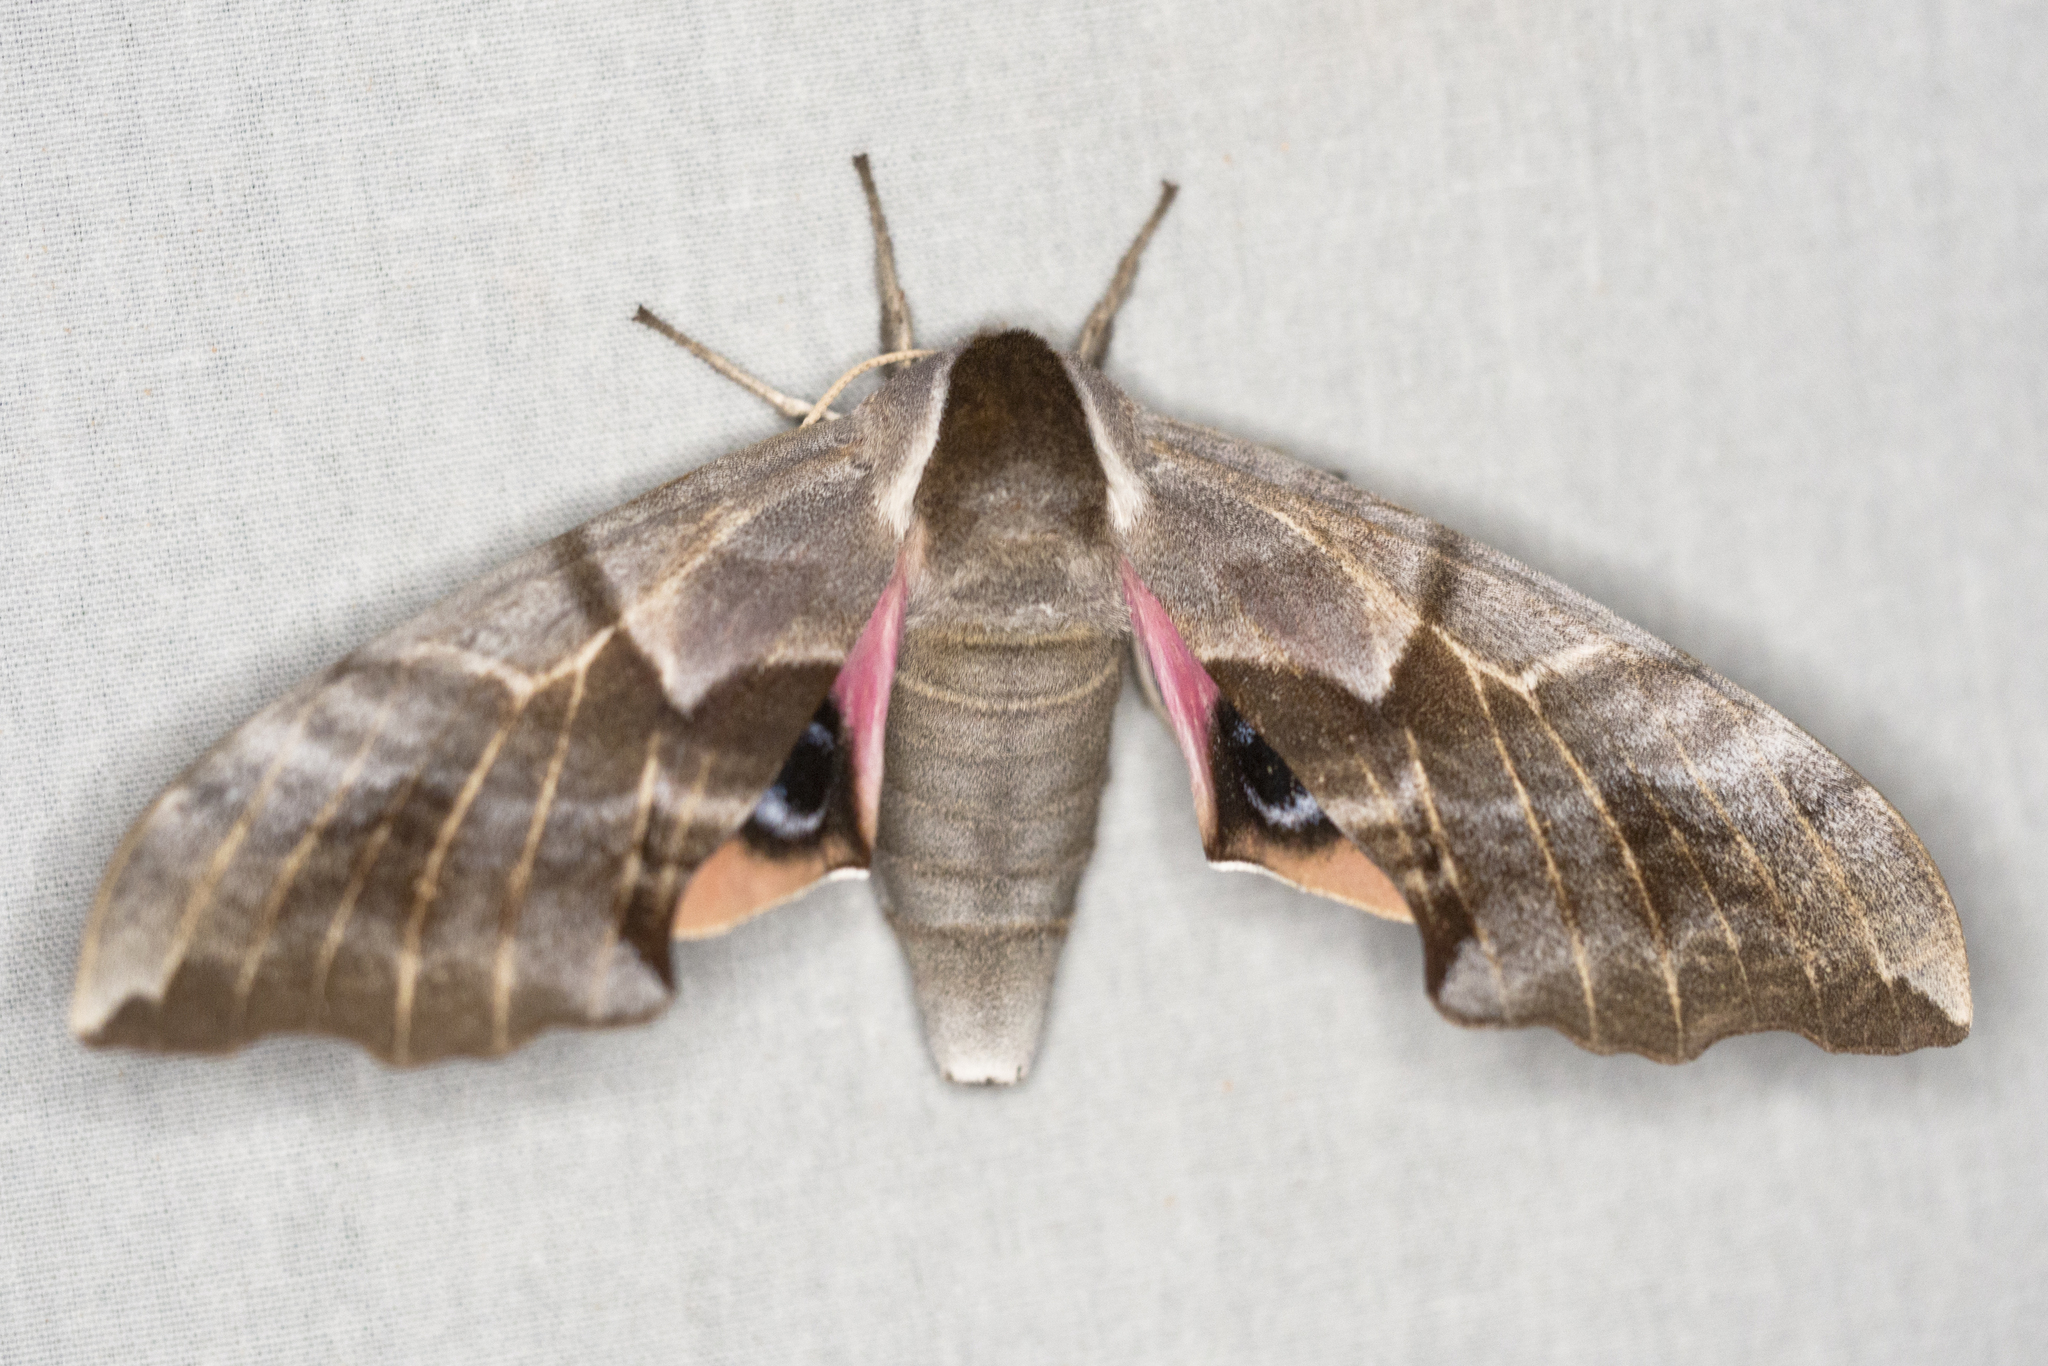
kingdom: Animalia
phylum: Arthropoda
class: Insecta
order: Lepidoptera
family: Sphingidae
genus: Smerinthus
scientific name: Smerinthus cerisyi
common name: Cerisy's sphinx moth
